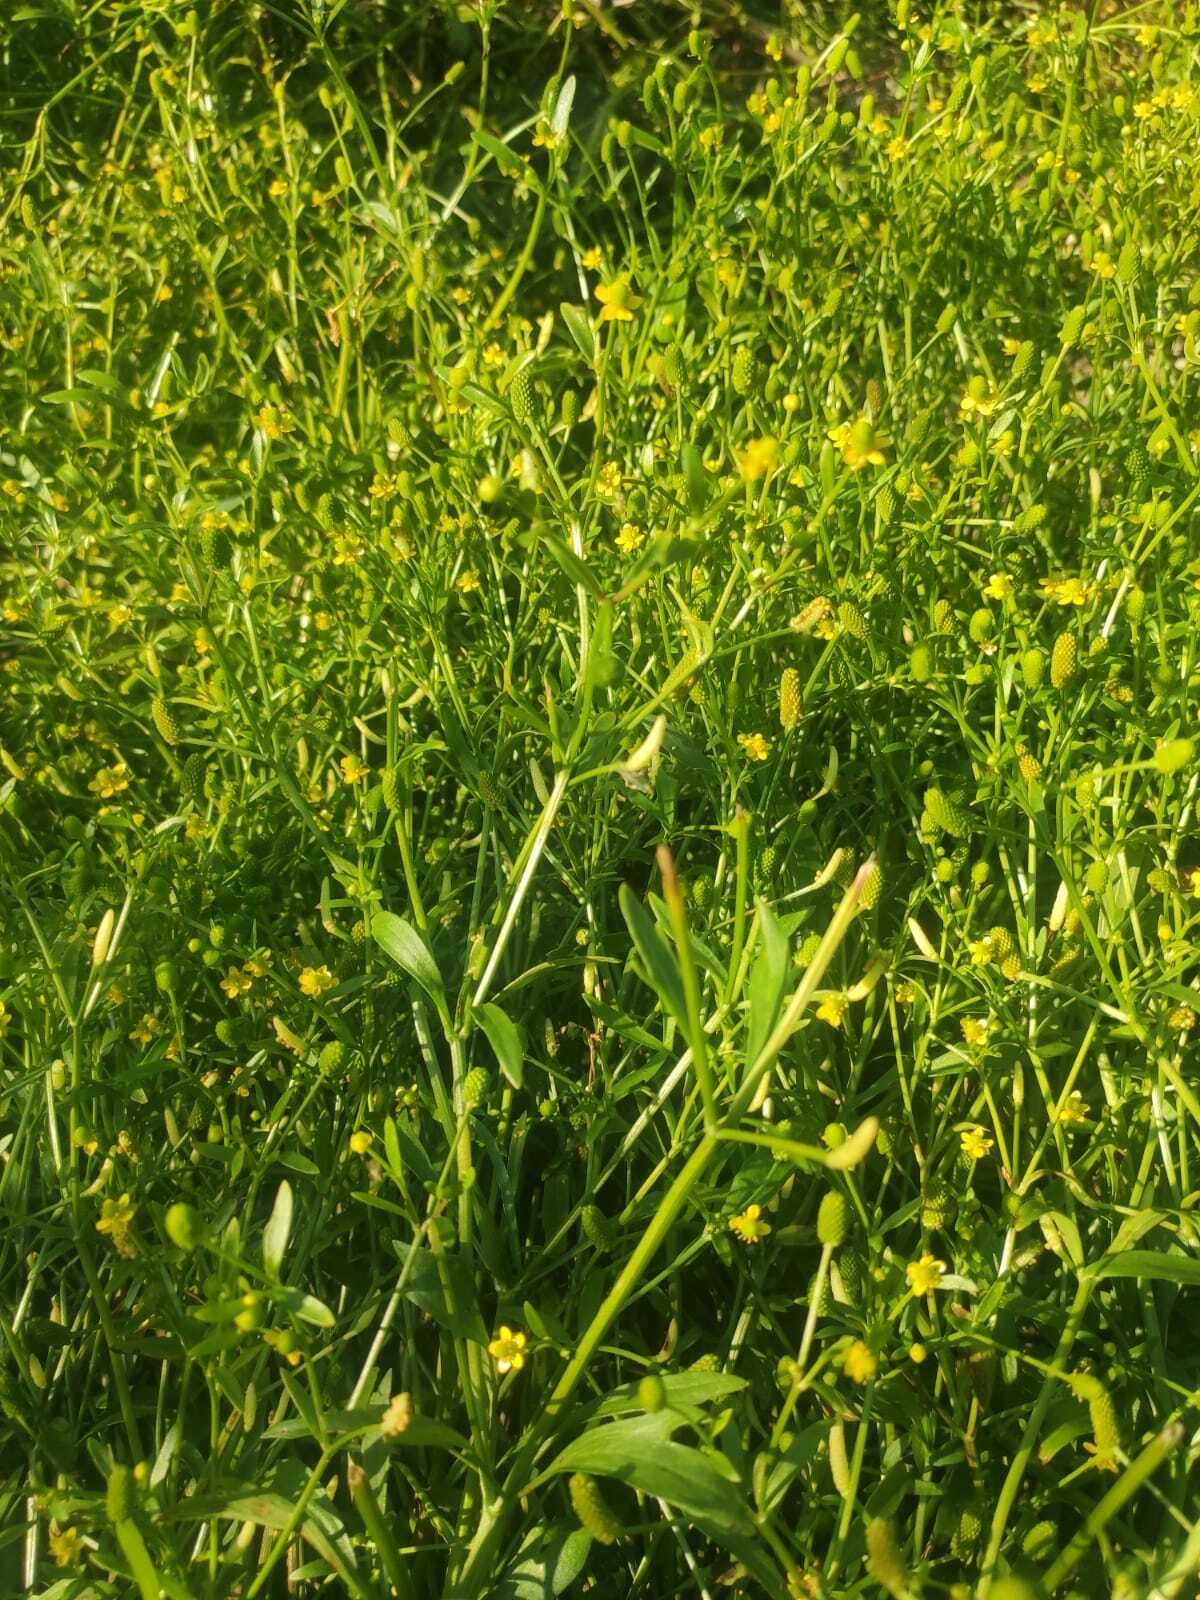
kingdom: Plantae
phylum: Tracheophyta
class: Magnoliopsida
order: Ranunculales
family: Ranunculaceae
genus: Ranunculus
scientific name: Ranunculus sceleratus
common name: Celery-leaved buttercup
